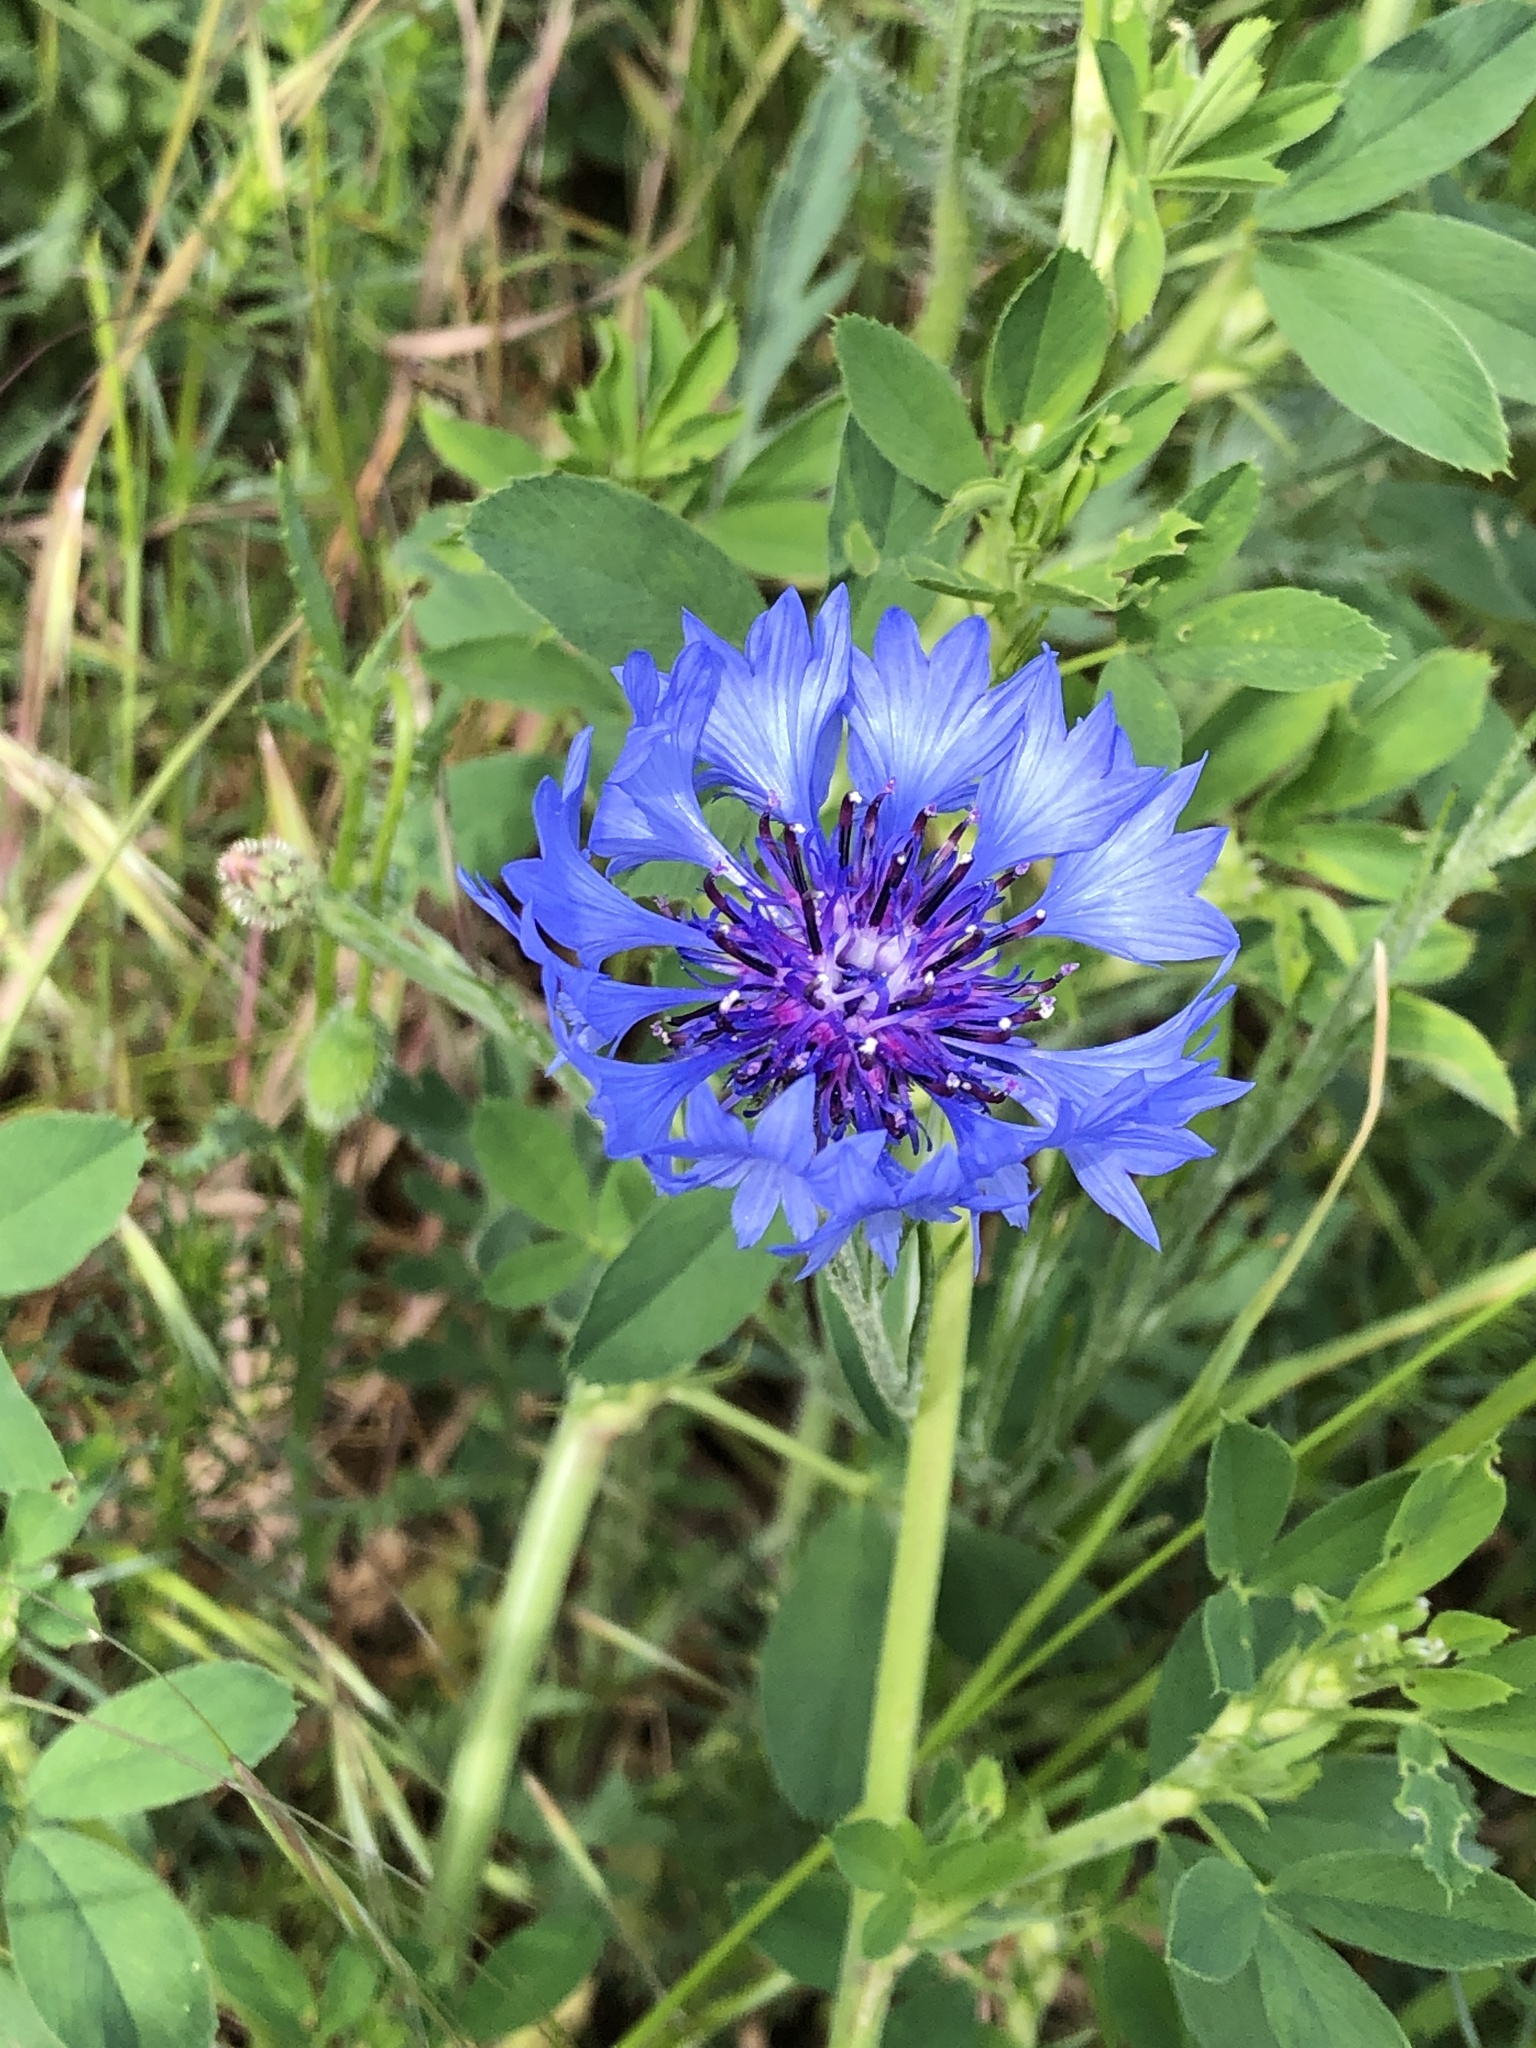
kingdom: Plantae
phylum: Tracheophyta
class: Magnoliopsida
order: Asterales
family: Asteraceae
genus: Centaurea
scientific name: Centaurea cyanus
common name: Cornflower
